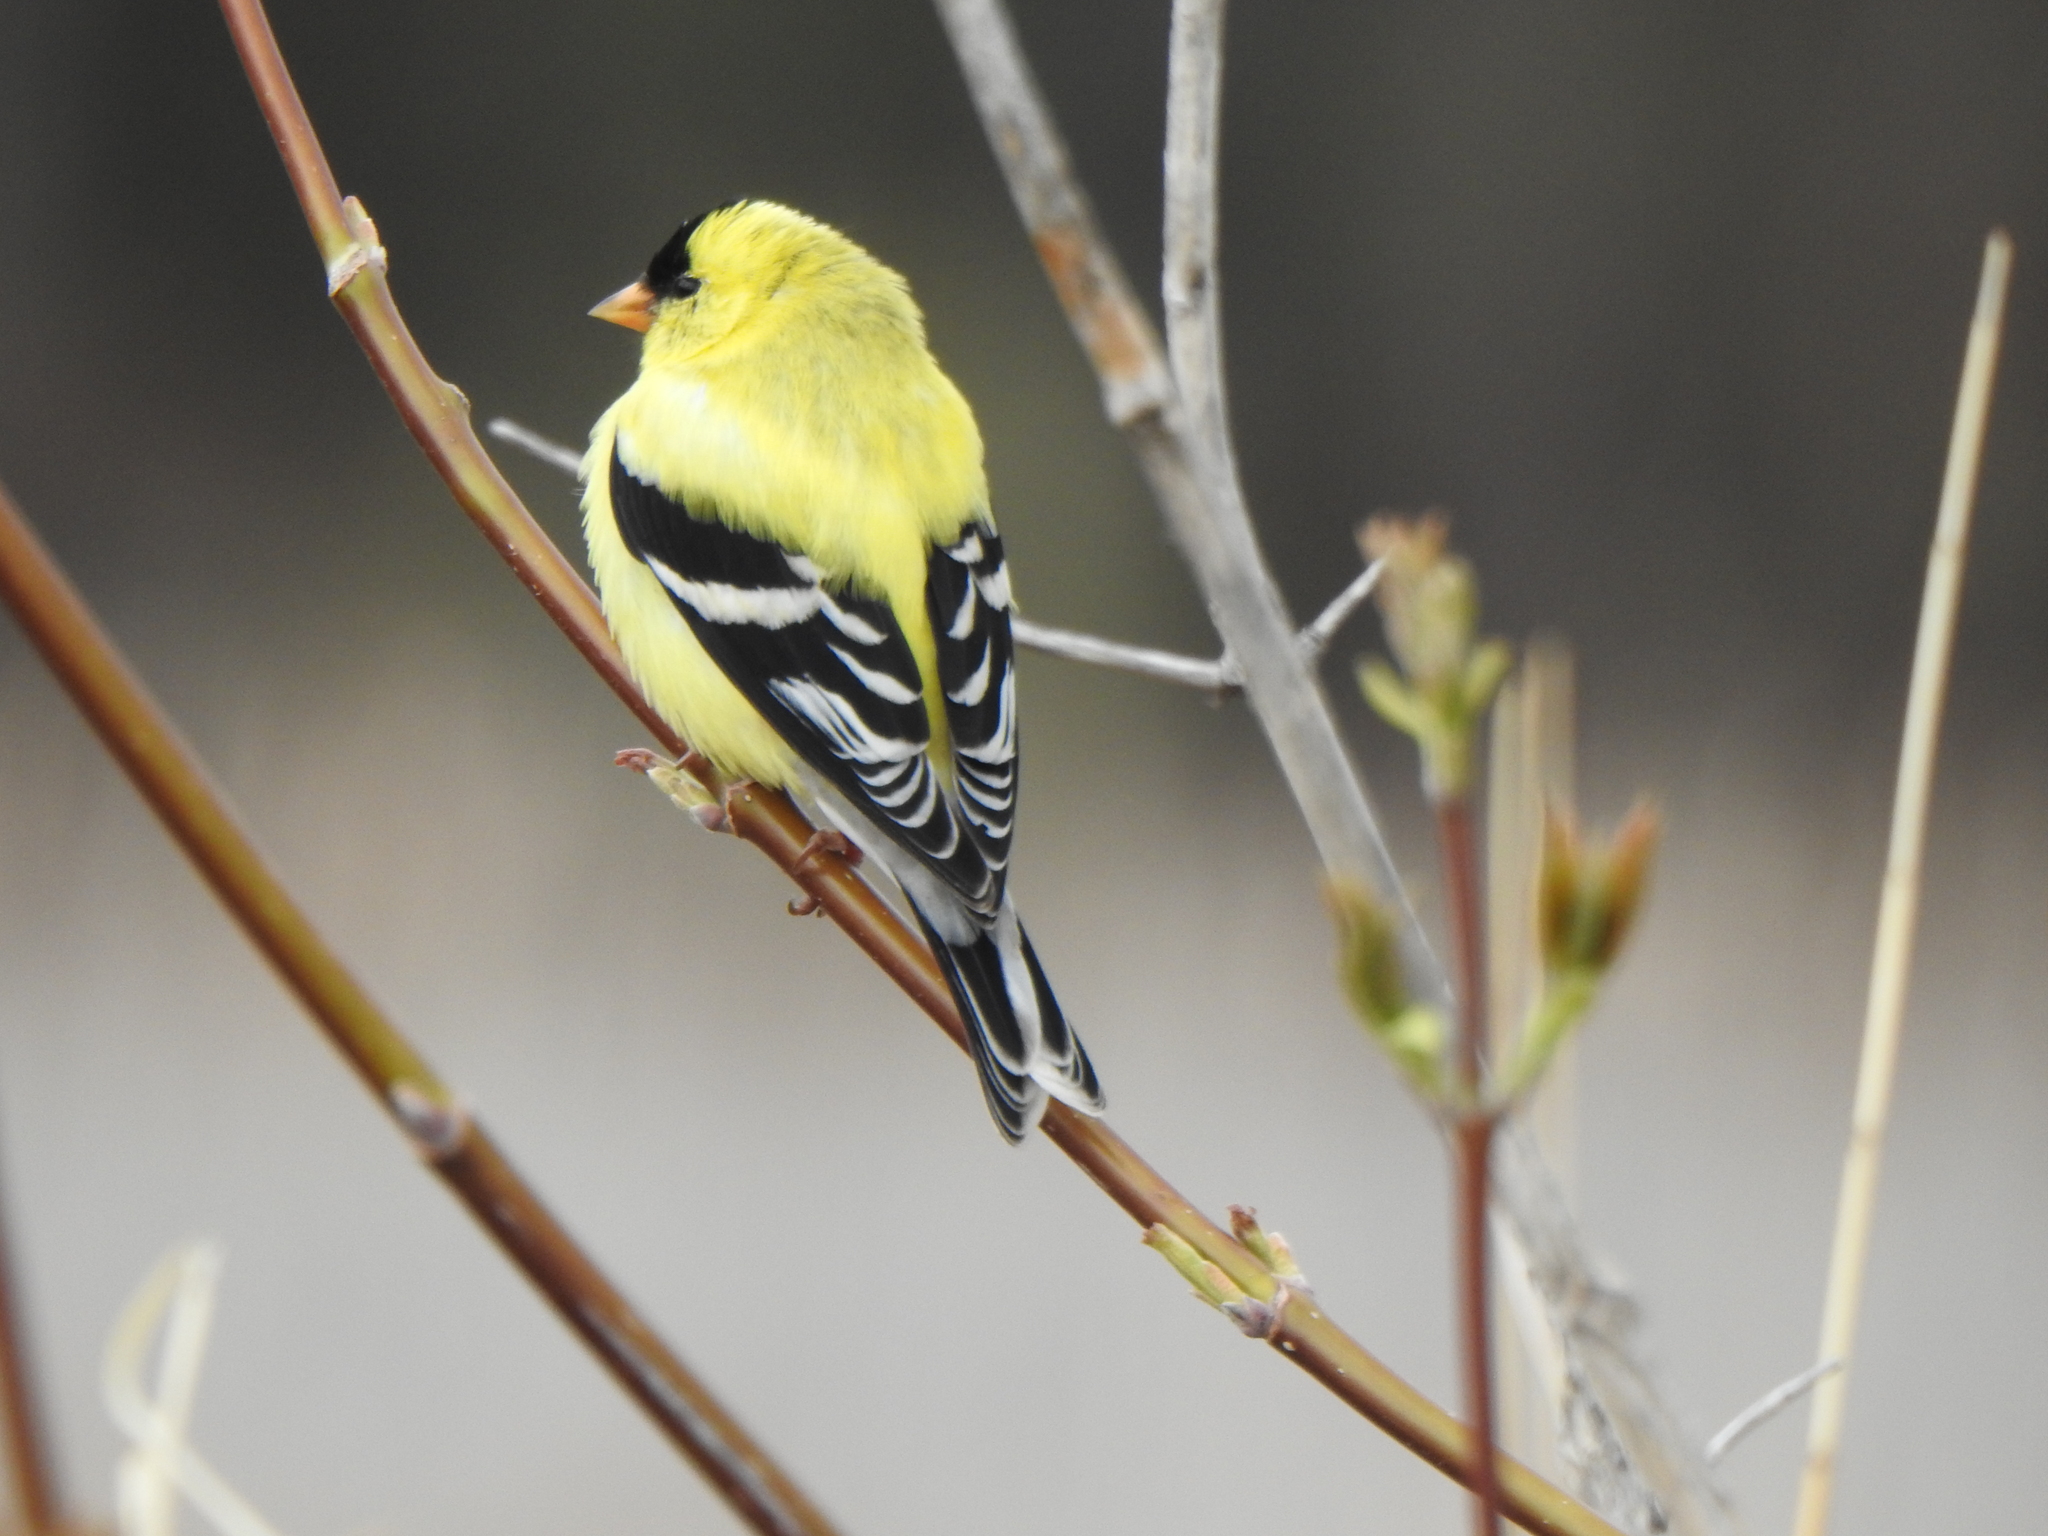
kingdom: Animalia
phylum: Chordata
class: Aves
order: Passeriformes
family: Fringillidae
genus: Spinus
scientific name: Spinus tristis
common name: American goldfinch
